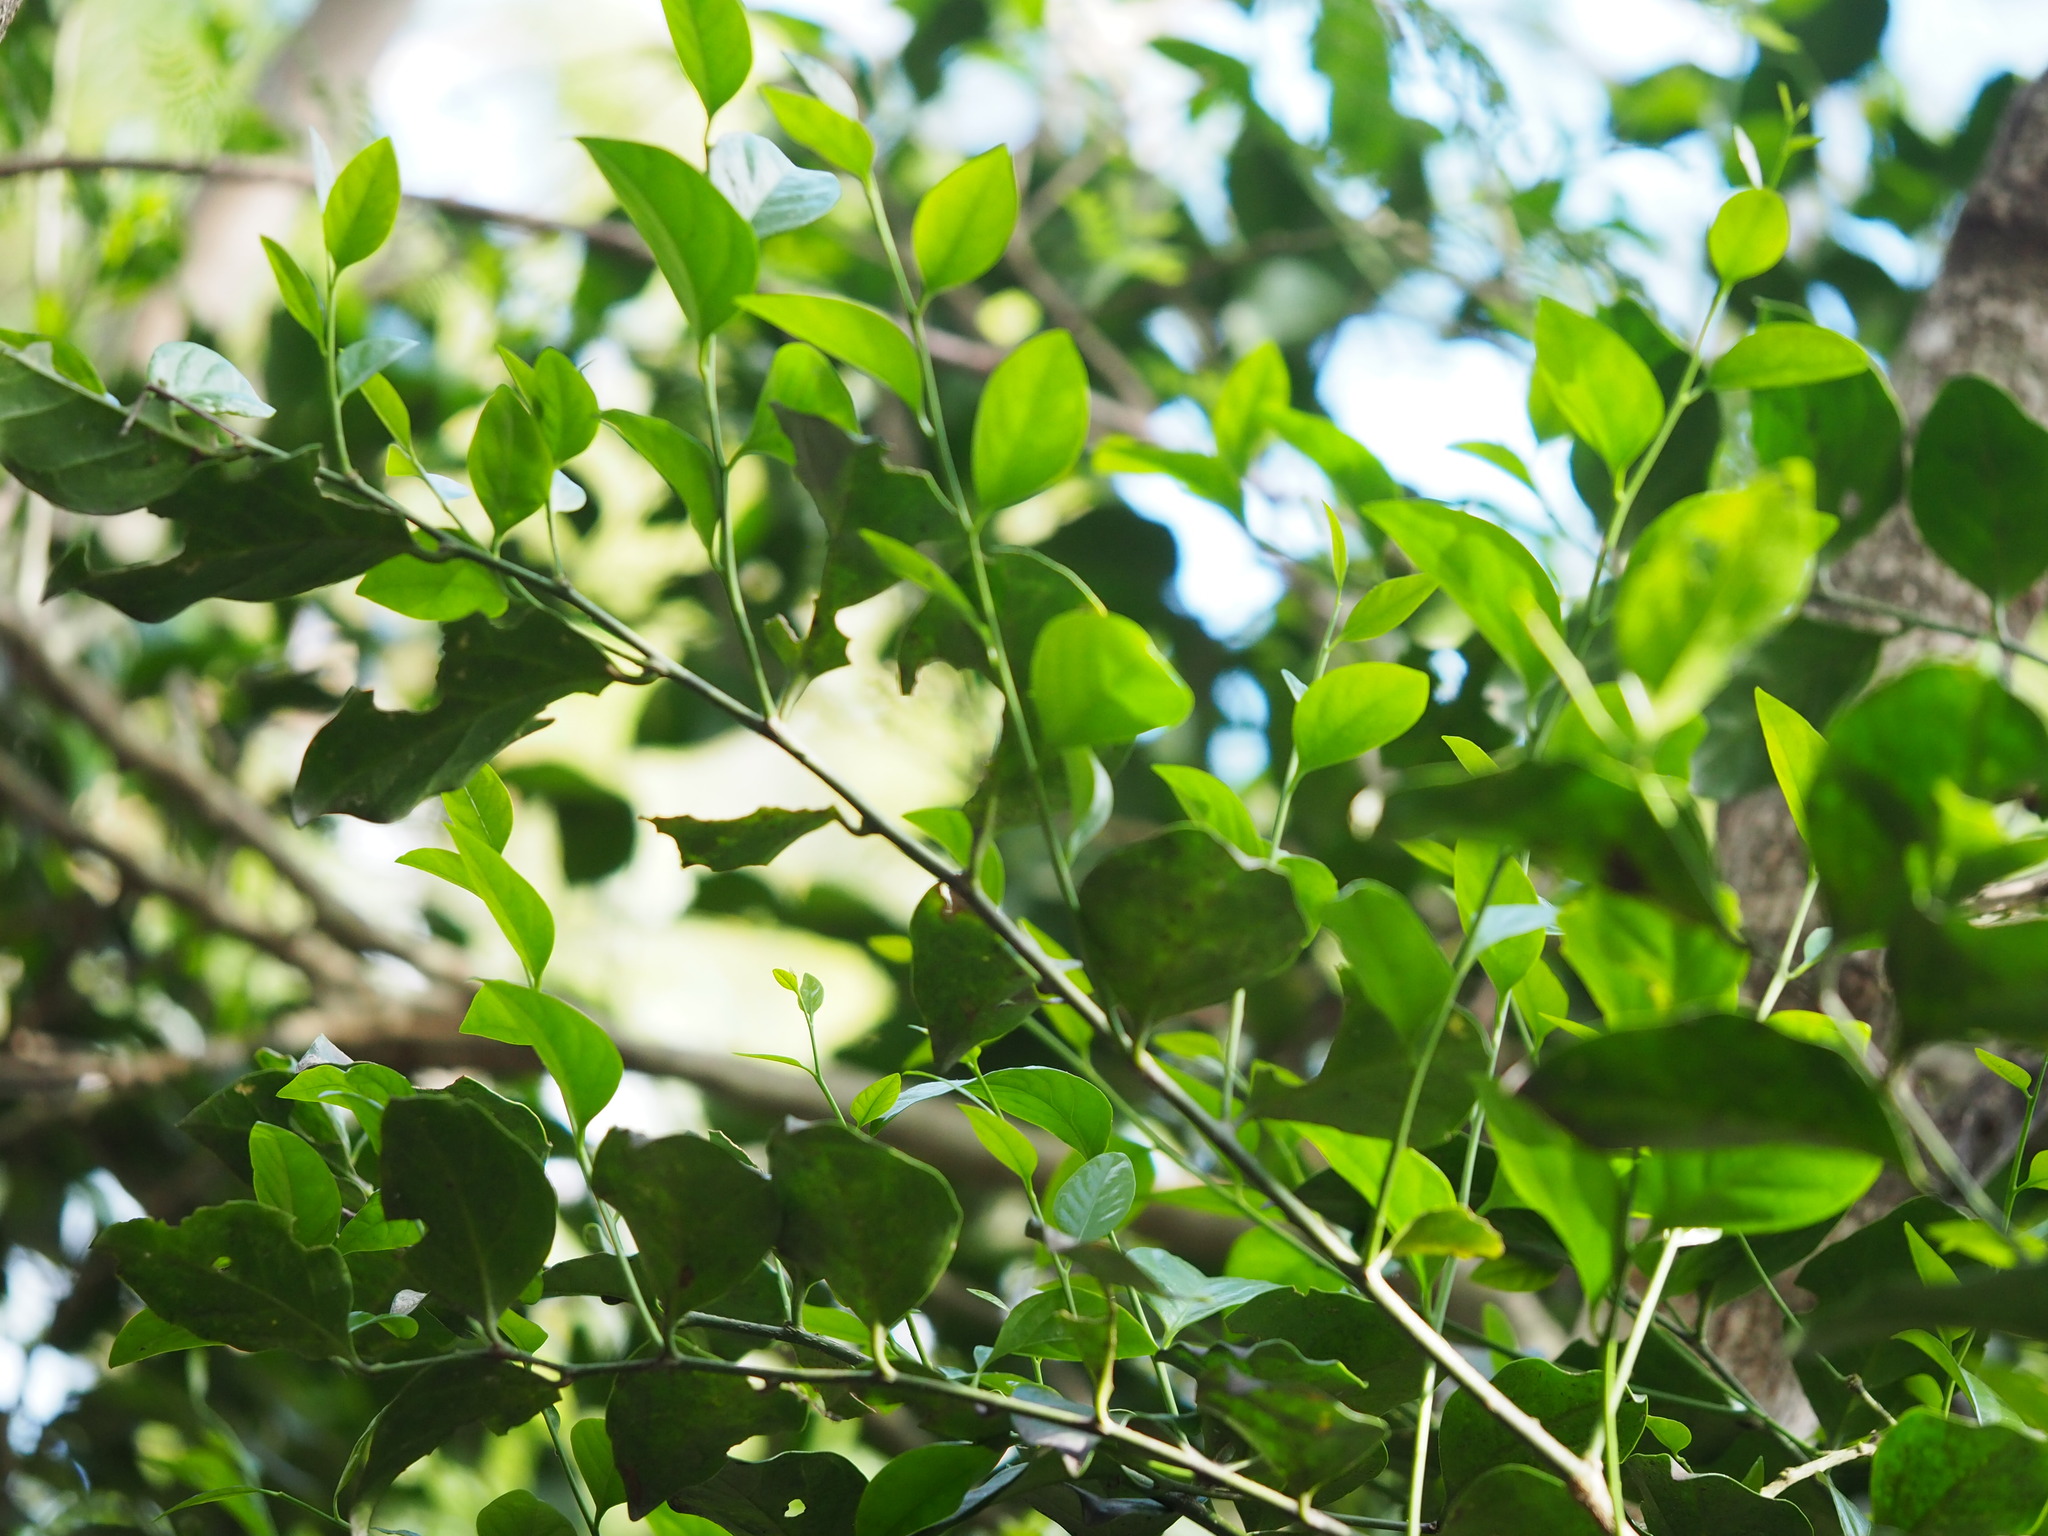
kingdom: Plantae
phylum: Tracheophyta
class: Magnoliopsida
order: Santalales
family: Opiliaceae
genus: Champereia
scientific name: Champereia manillana
